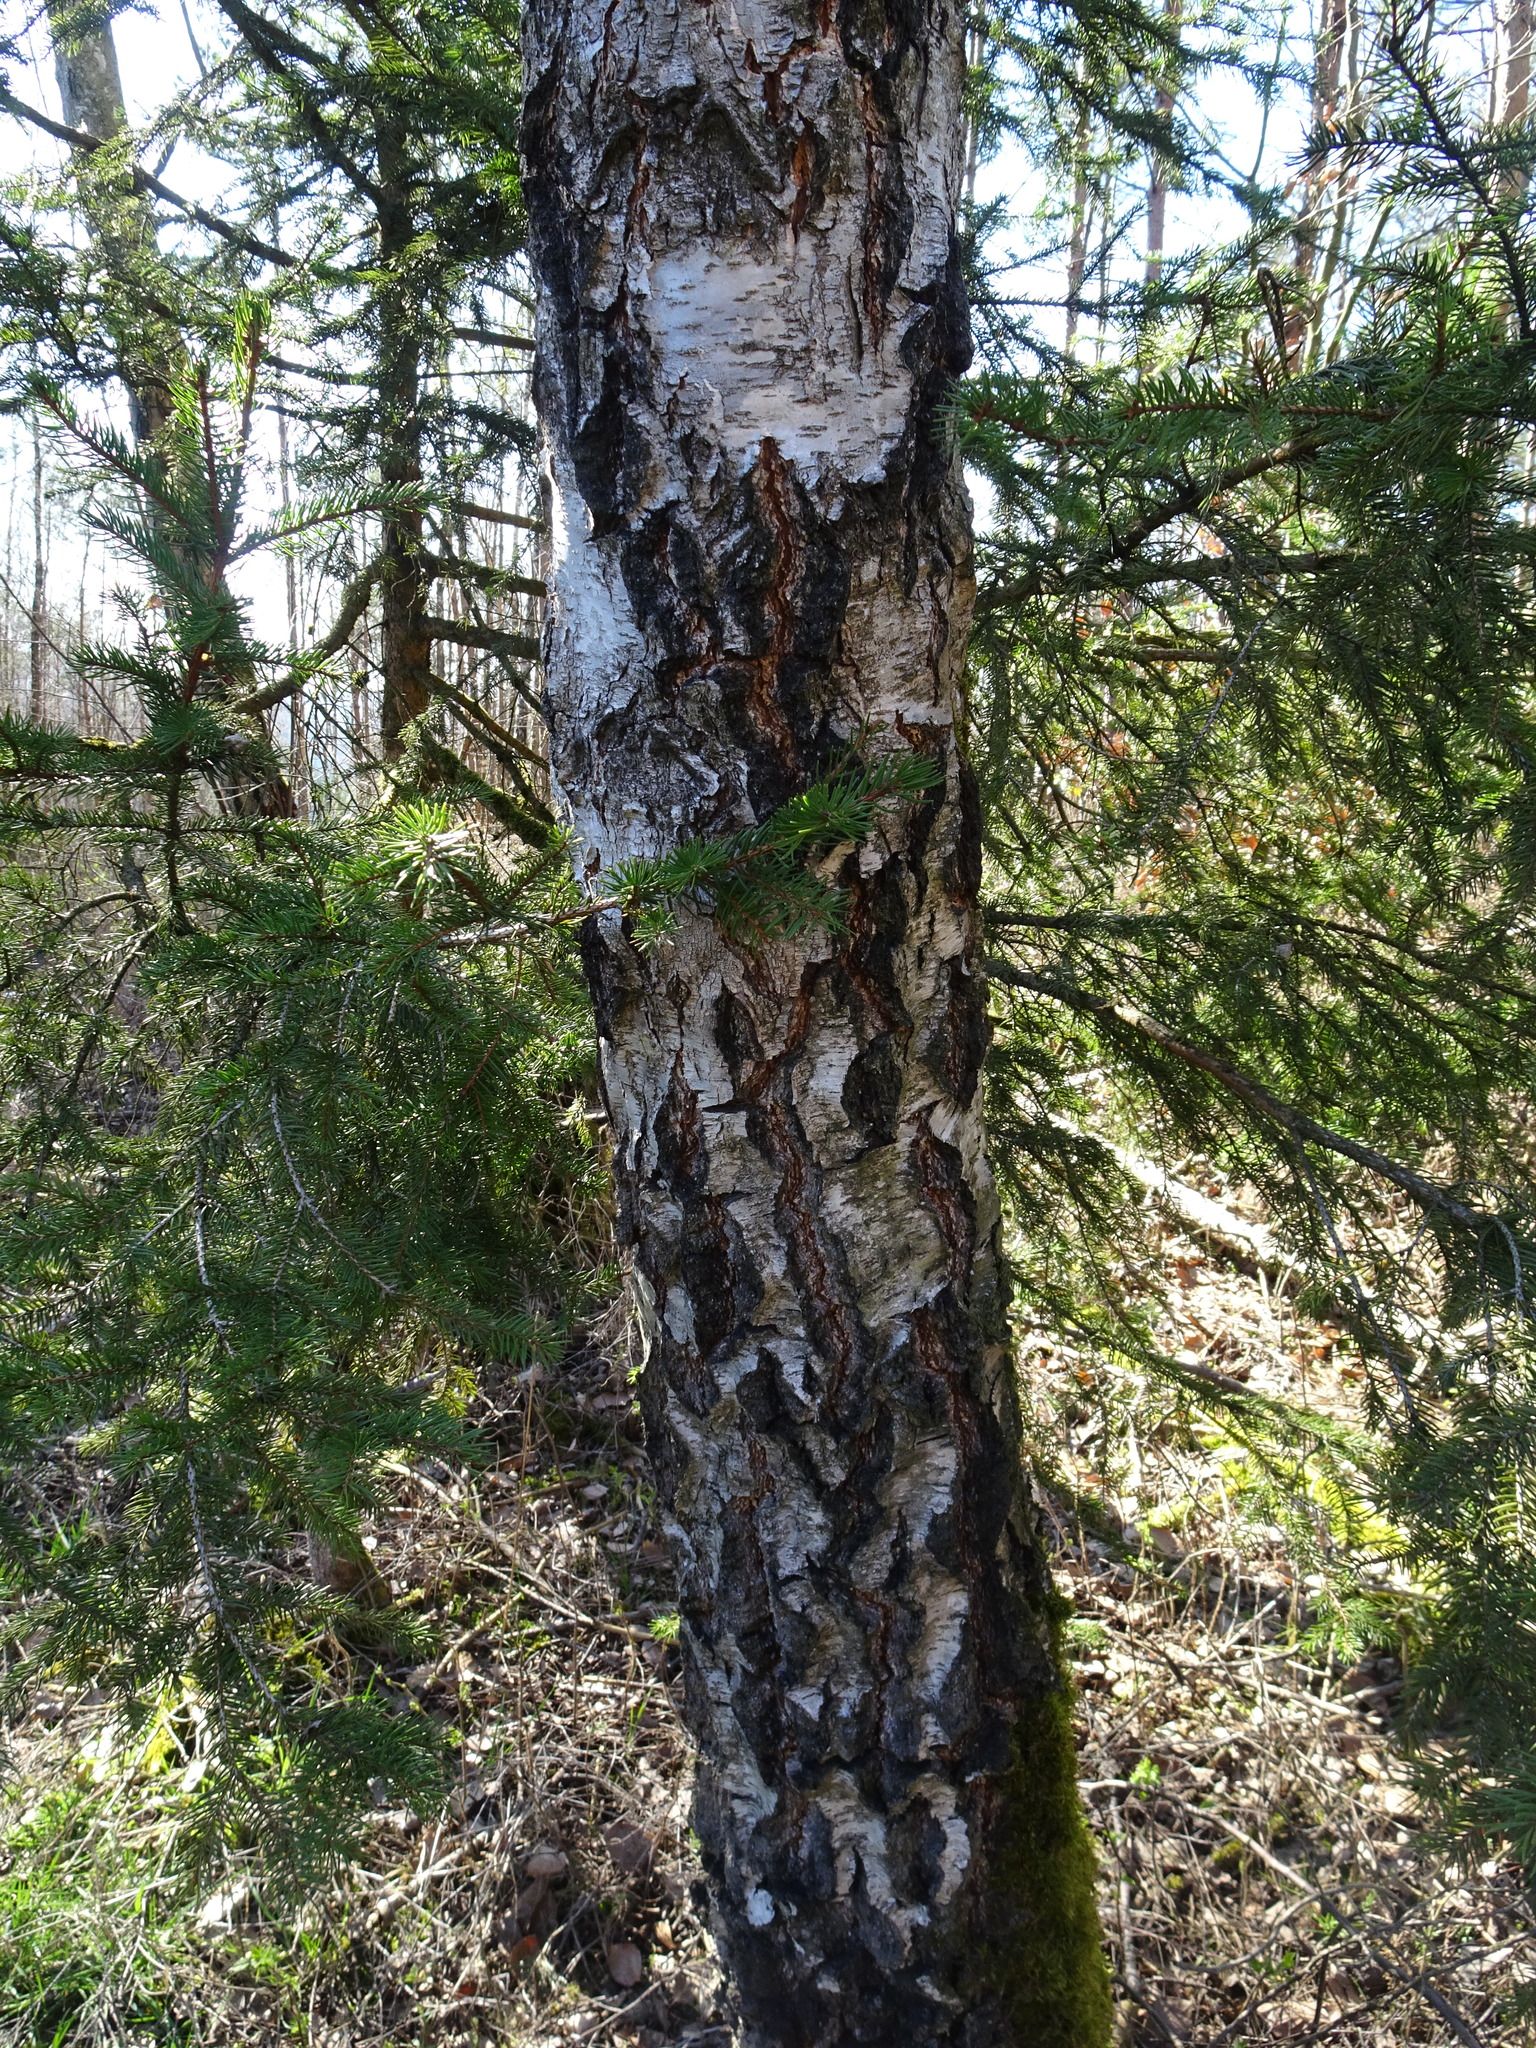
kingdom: Plantae
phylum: Tracheophyta
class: Magnoliopsida
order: Fagales
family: Betulaceae
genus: Betula
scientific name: Betula pendula
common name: Silver birch
